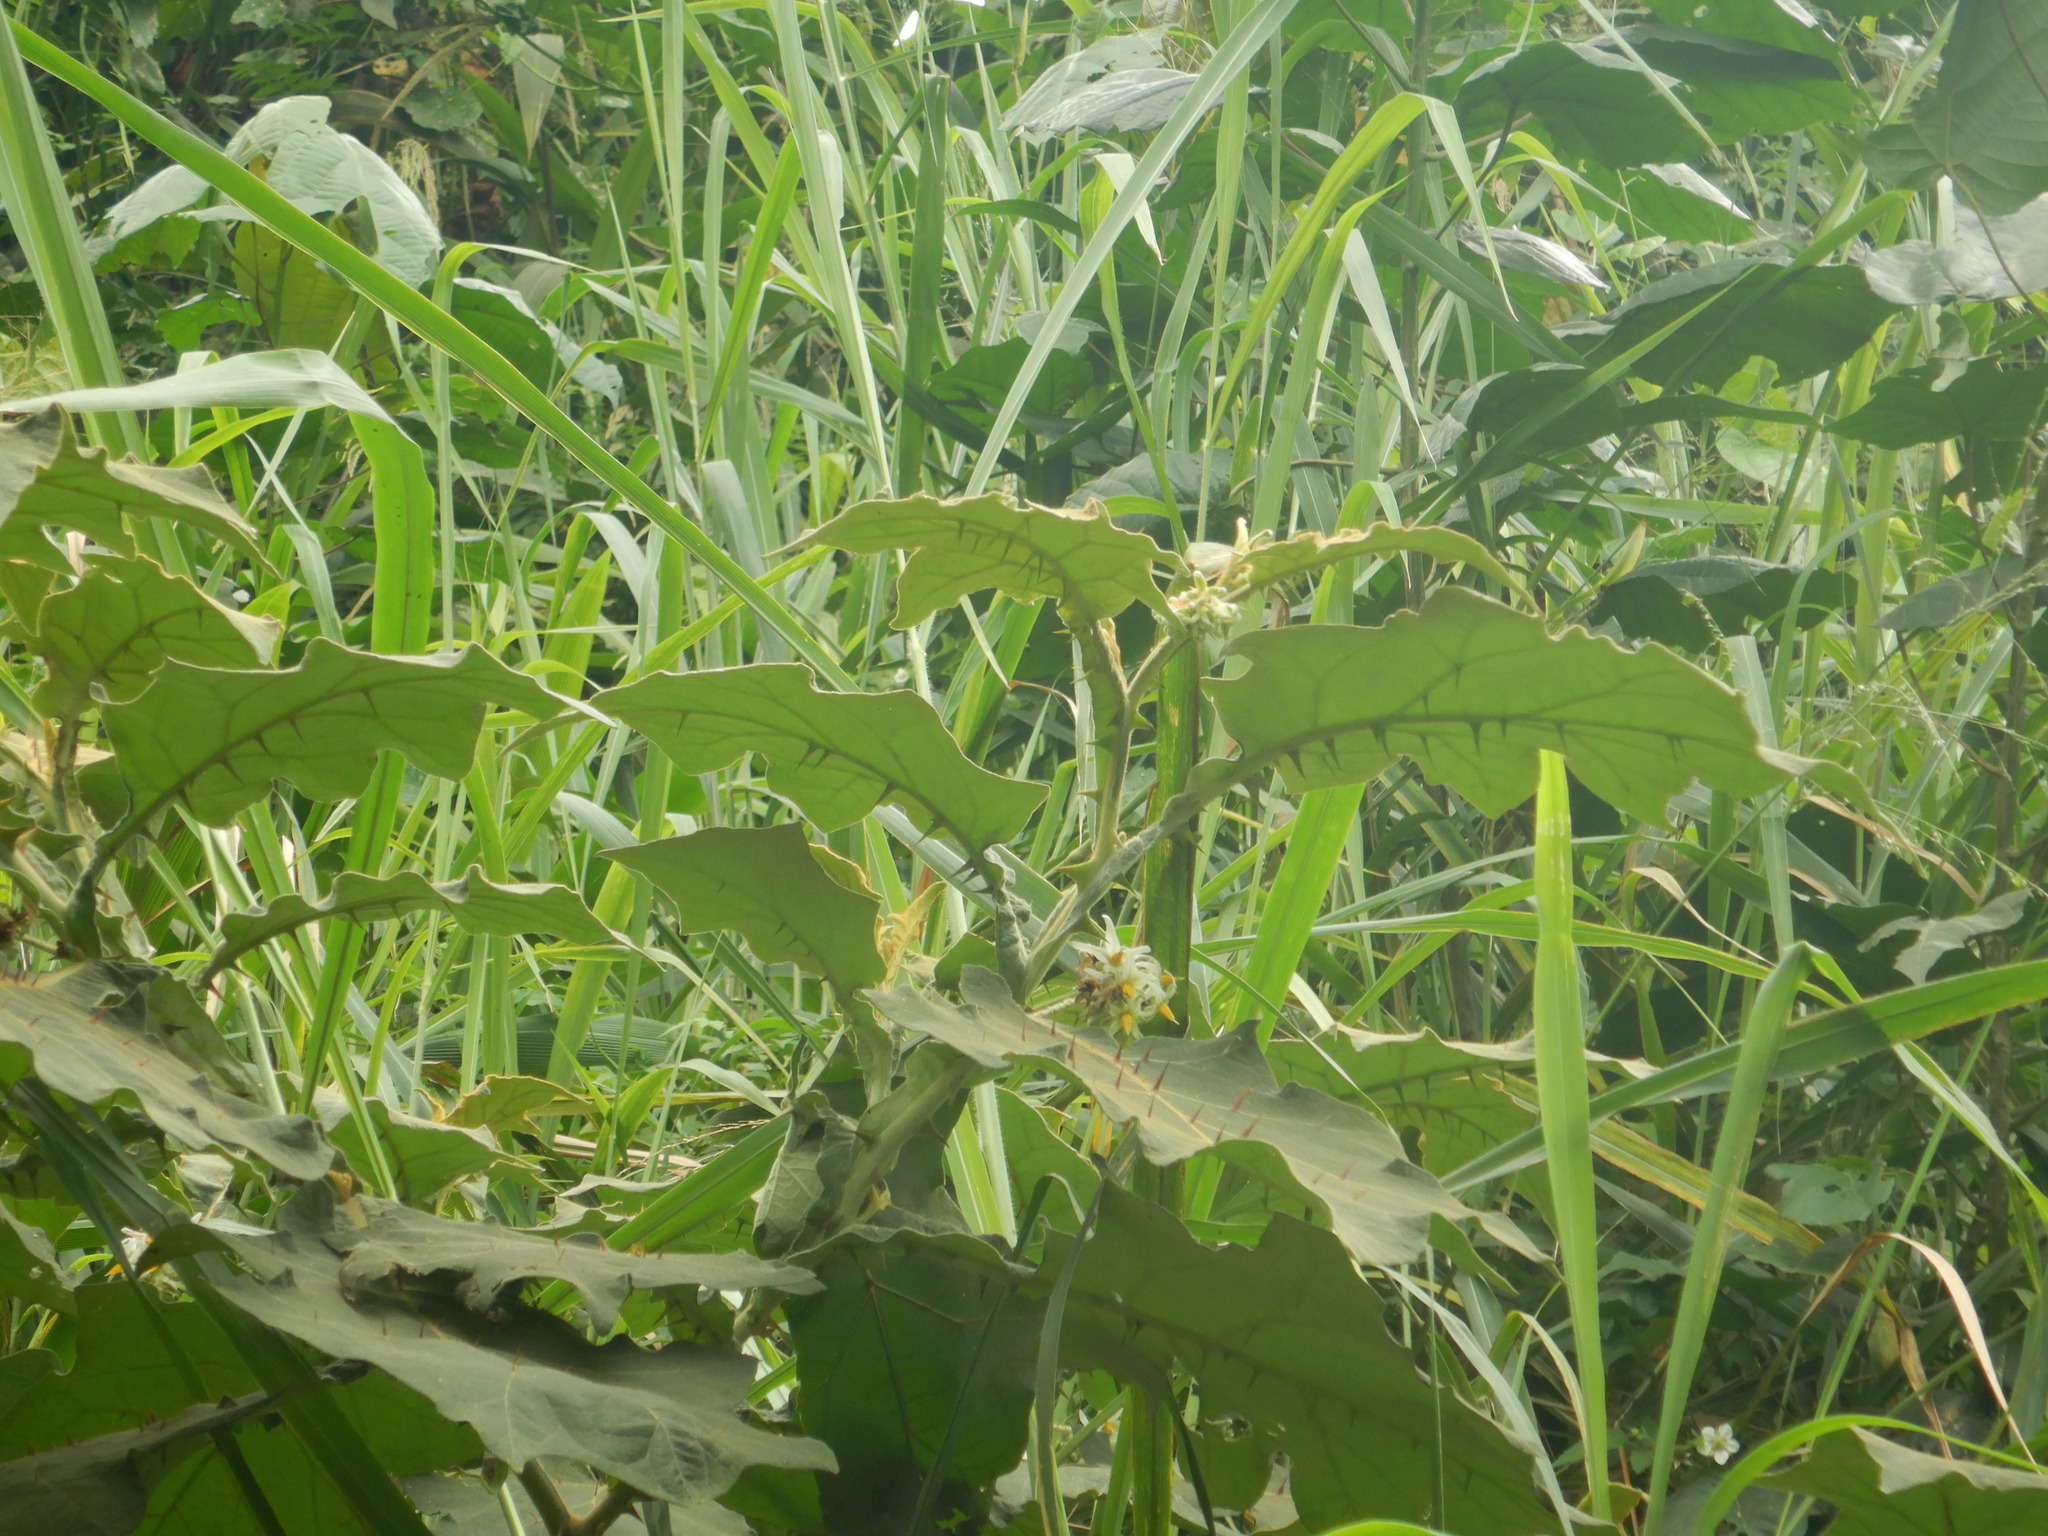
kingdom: Plantae
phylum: Tracheophyta
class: Magnoliopsida
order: Solanales
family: Solanaceae
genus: Solanum
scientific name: Solanum robustum
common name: Shrubby nightshade
